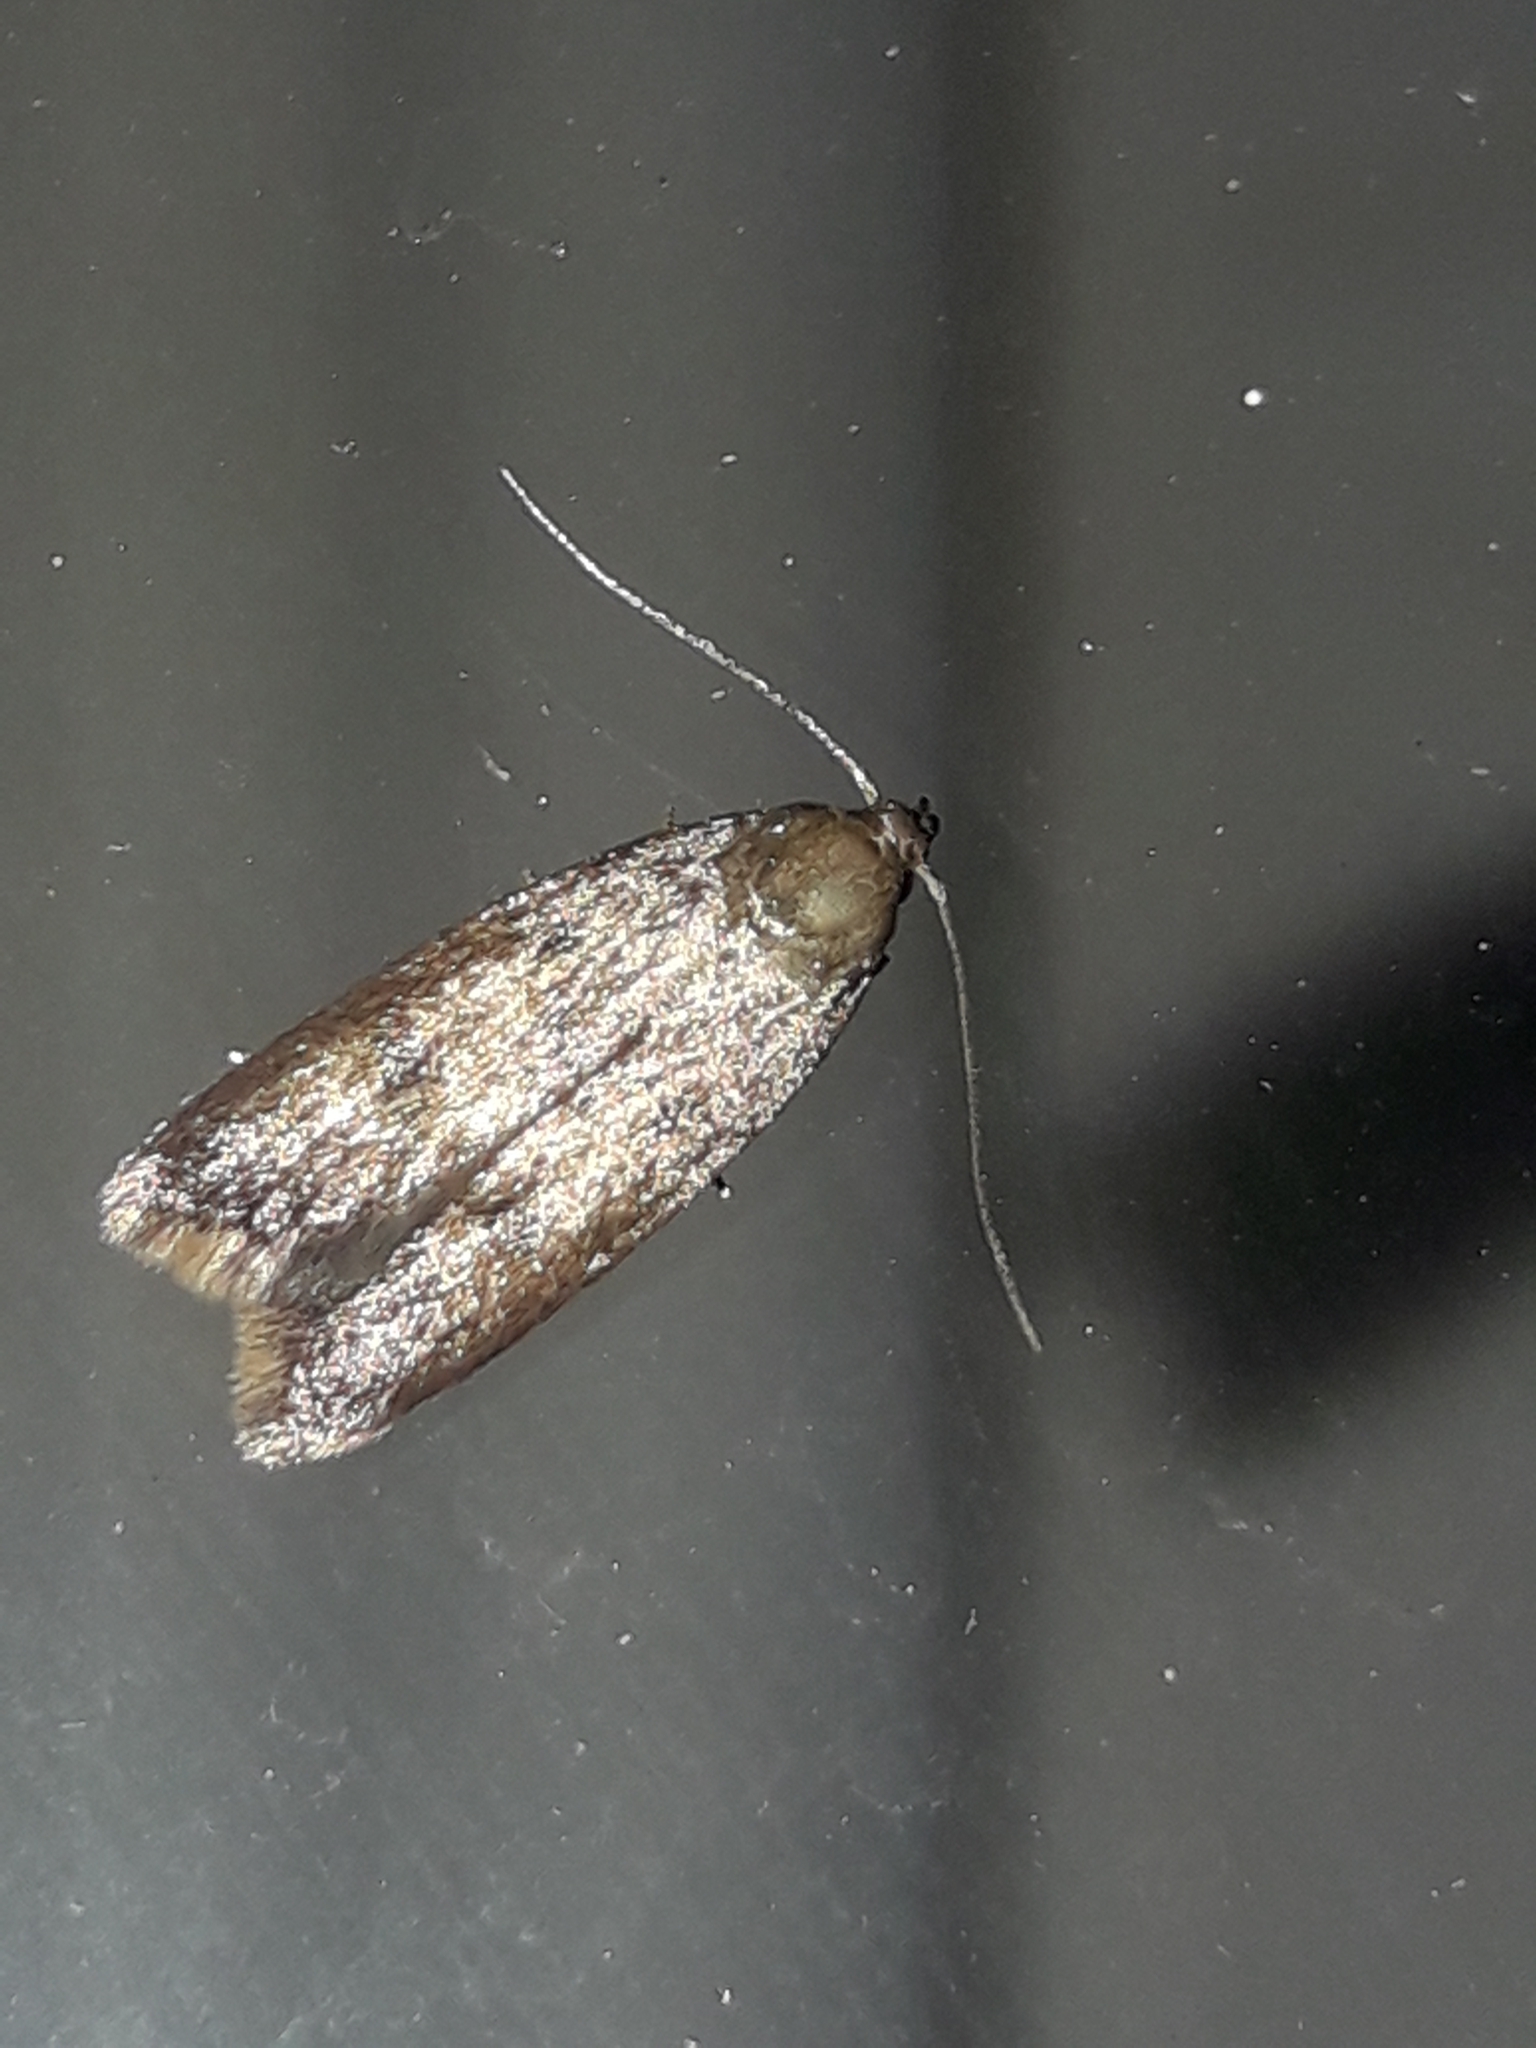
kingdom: Animalia
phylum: Arthropoda
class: Insecta
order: Lepidoptera
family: Oecophoridae
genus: Tachystola
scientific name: Tachystola acroxantha
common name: Ruddy streak
